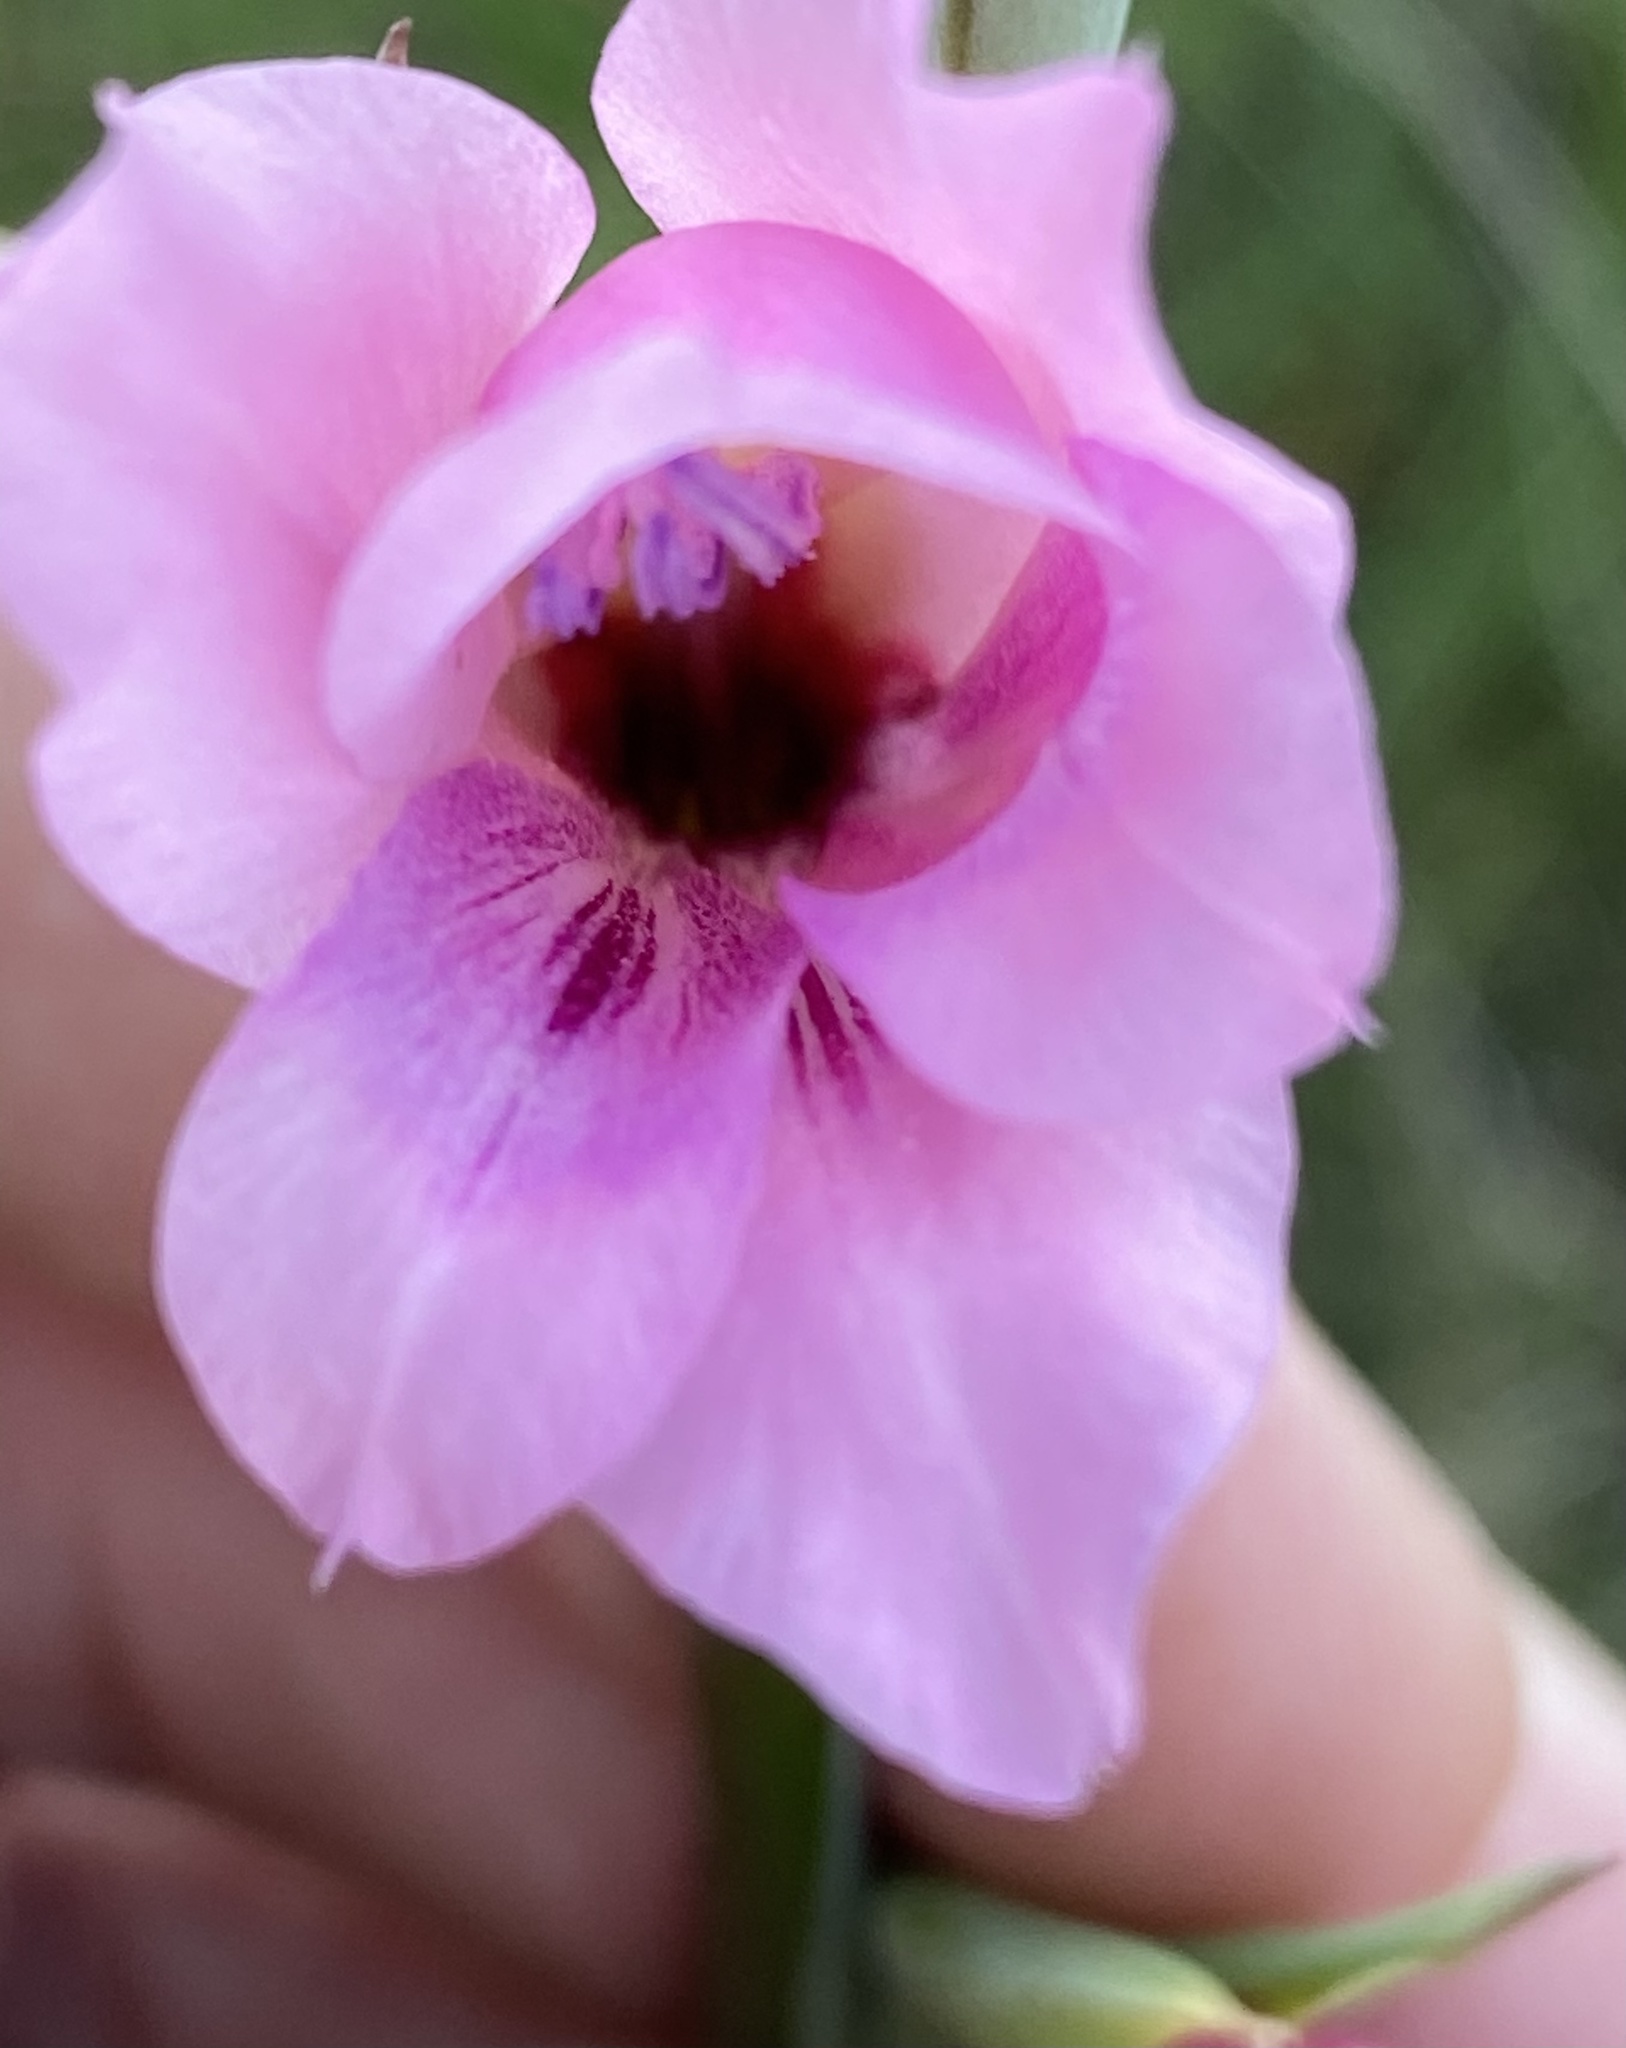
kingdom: Plantae
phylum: Tracheophyta
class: Liliopsida
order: Asparagales
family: Iridaceae
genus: Gladiolus
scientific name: Gladiolus mortonius
